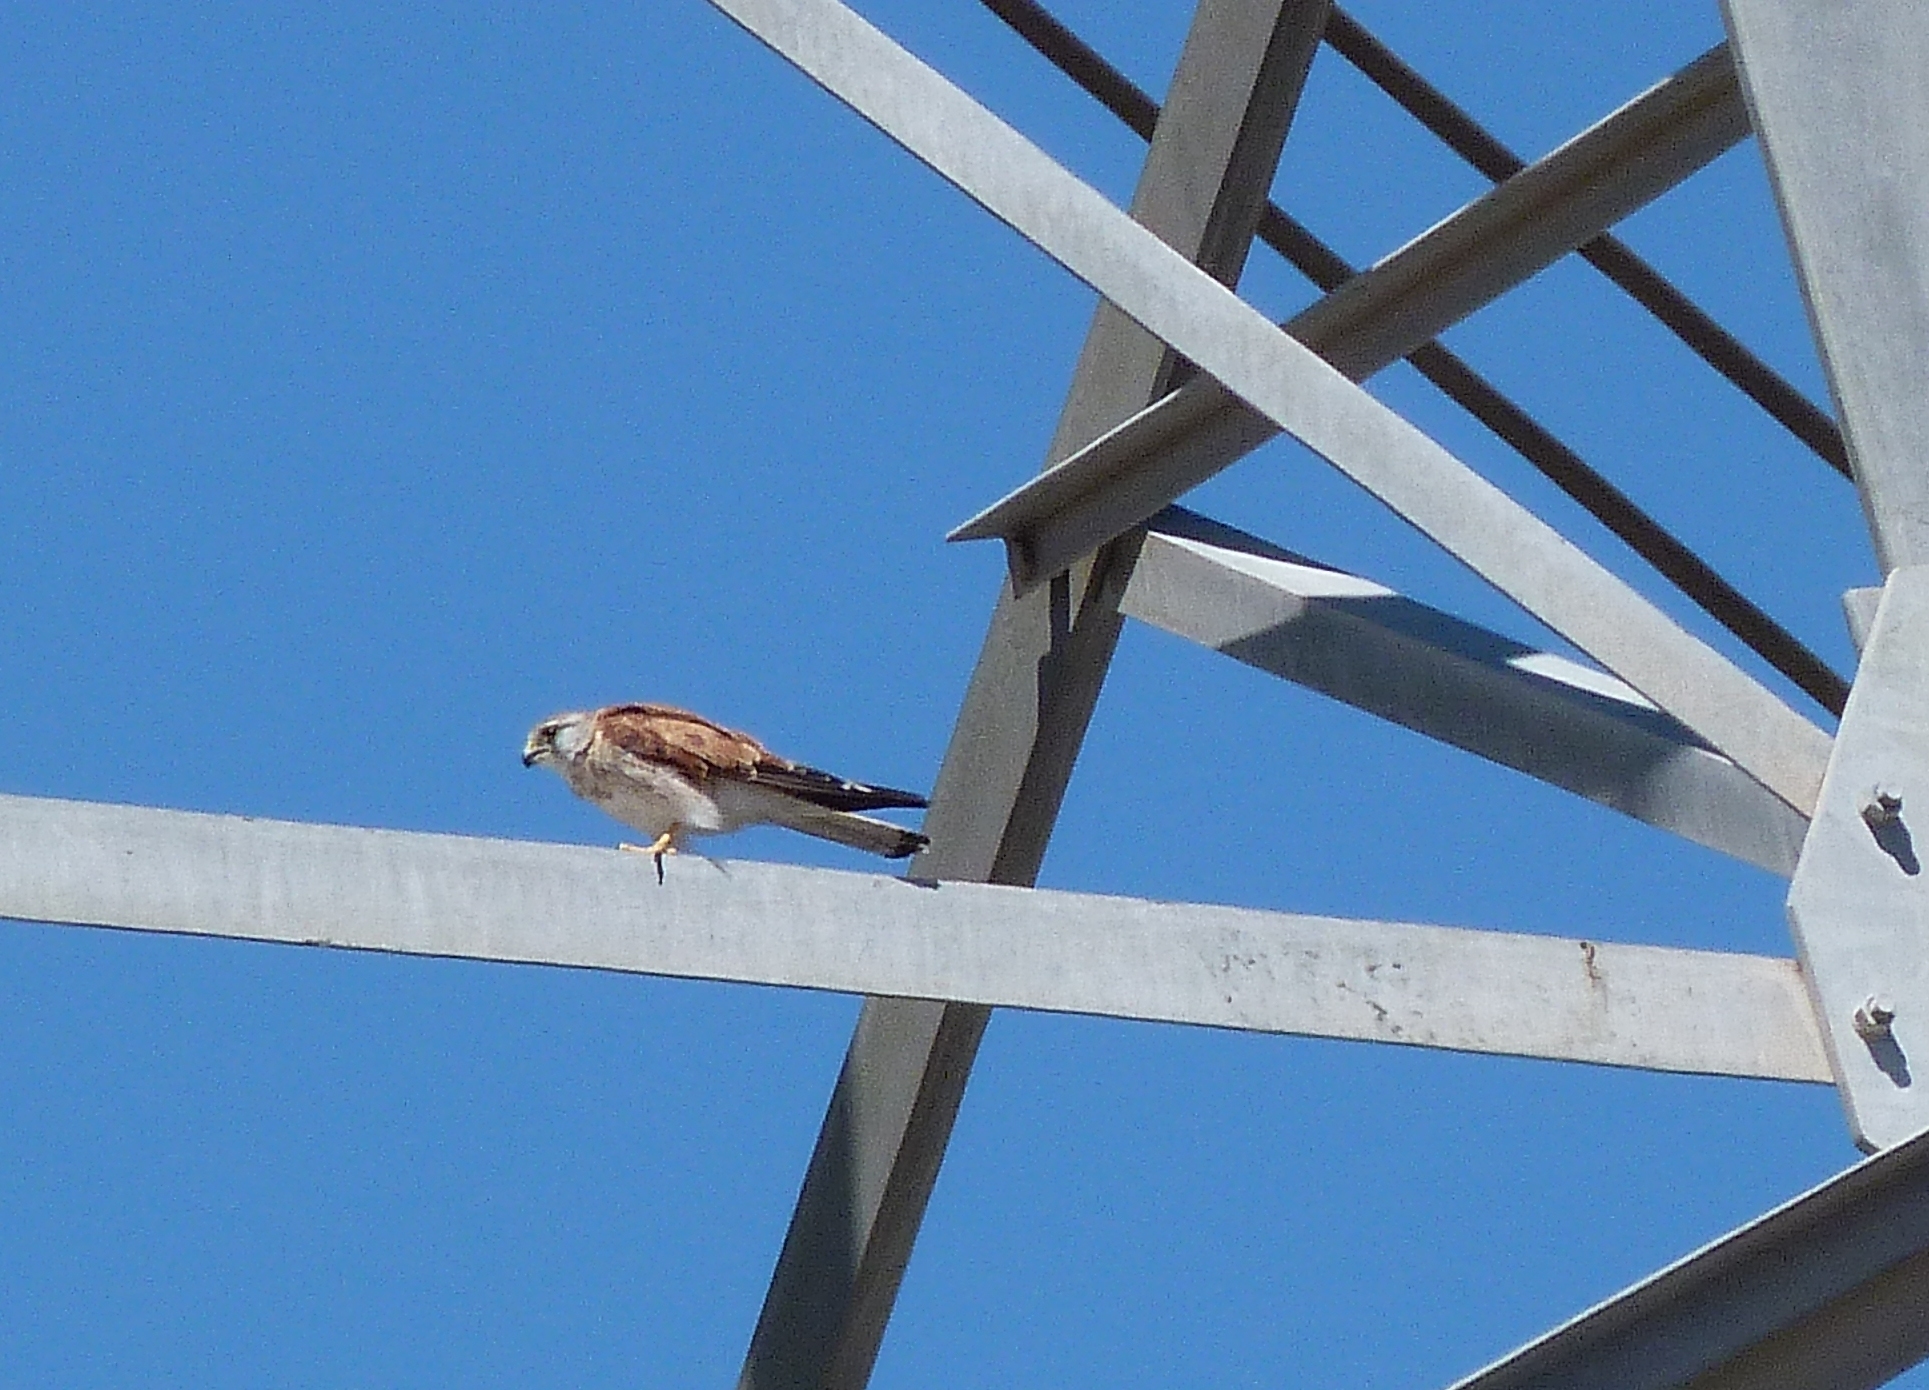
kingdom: Animalia
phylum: Chordata
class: Aves
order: Falconiformes
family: Falconidae
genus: Falco
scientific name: Falco cenchroides
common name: Nankeen kestrel
